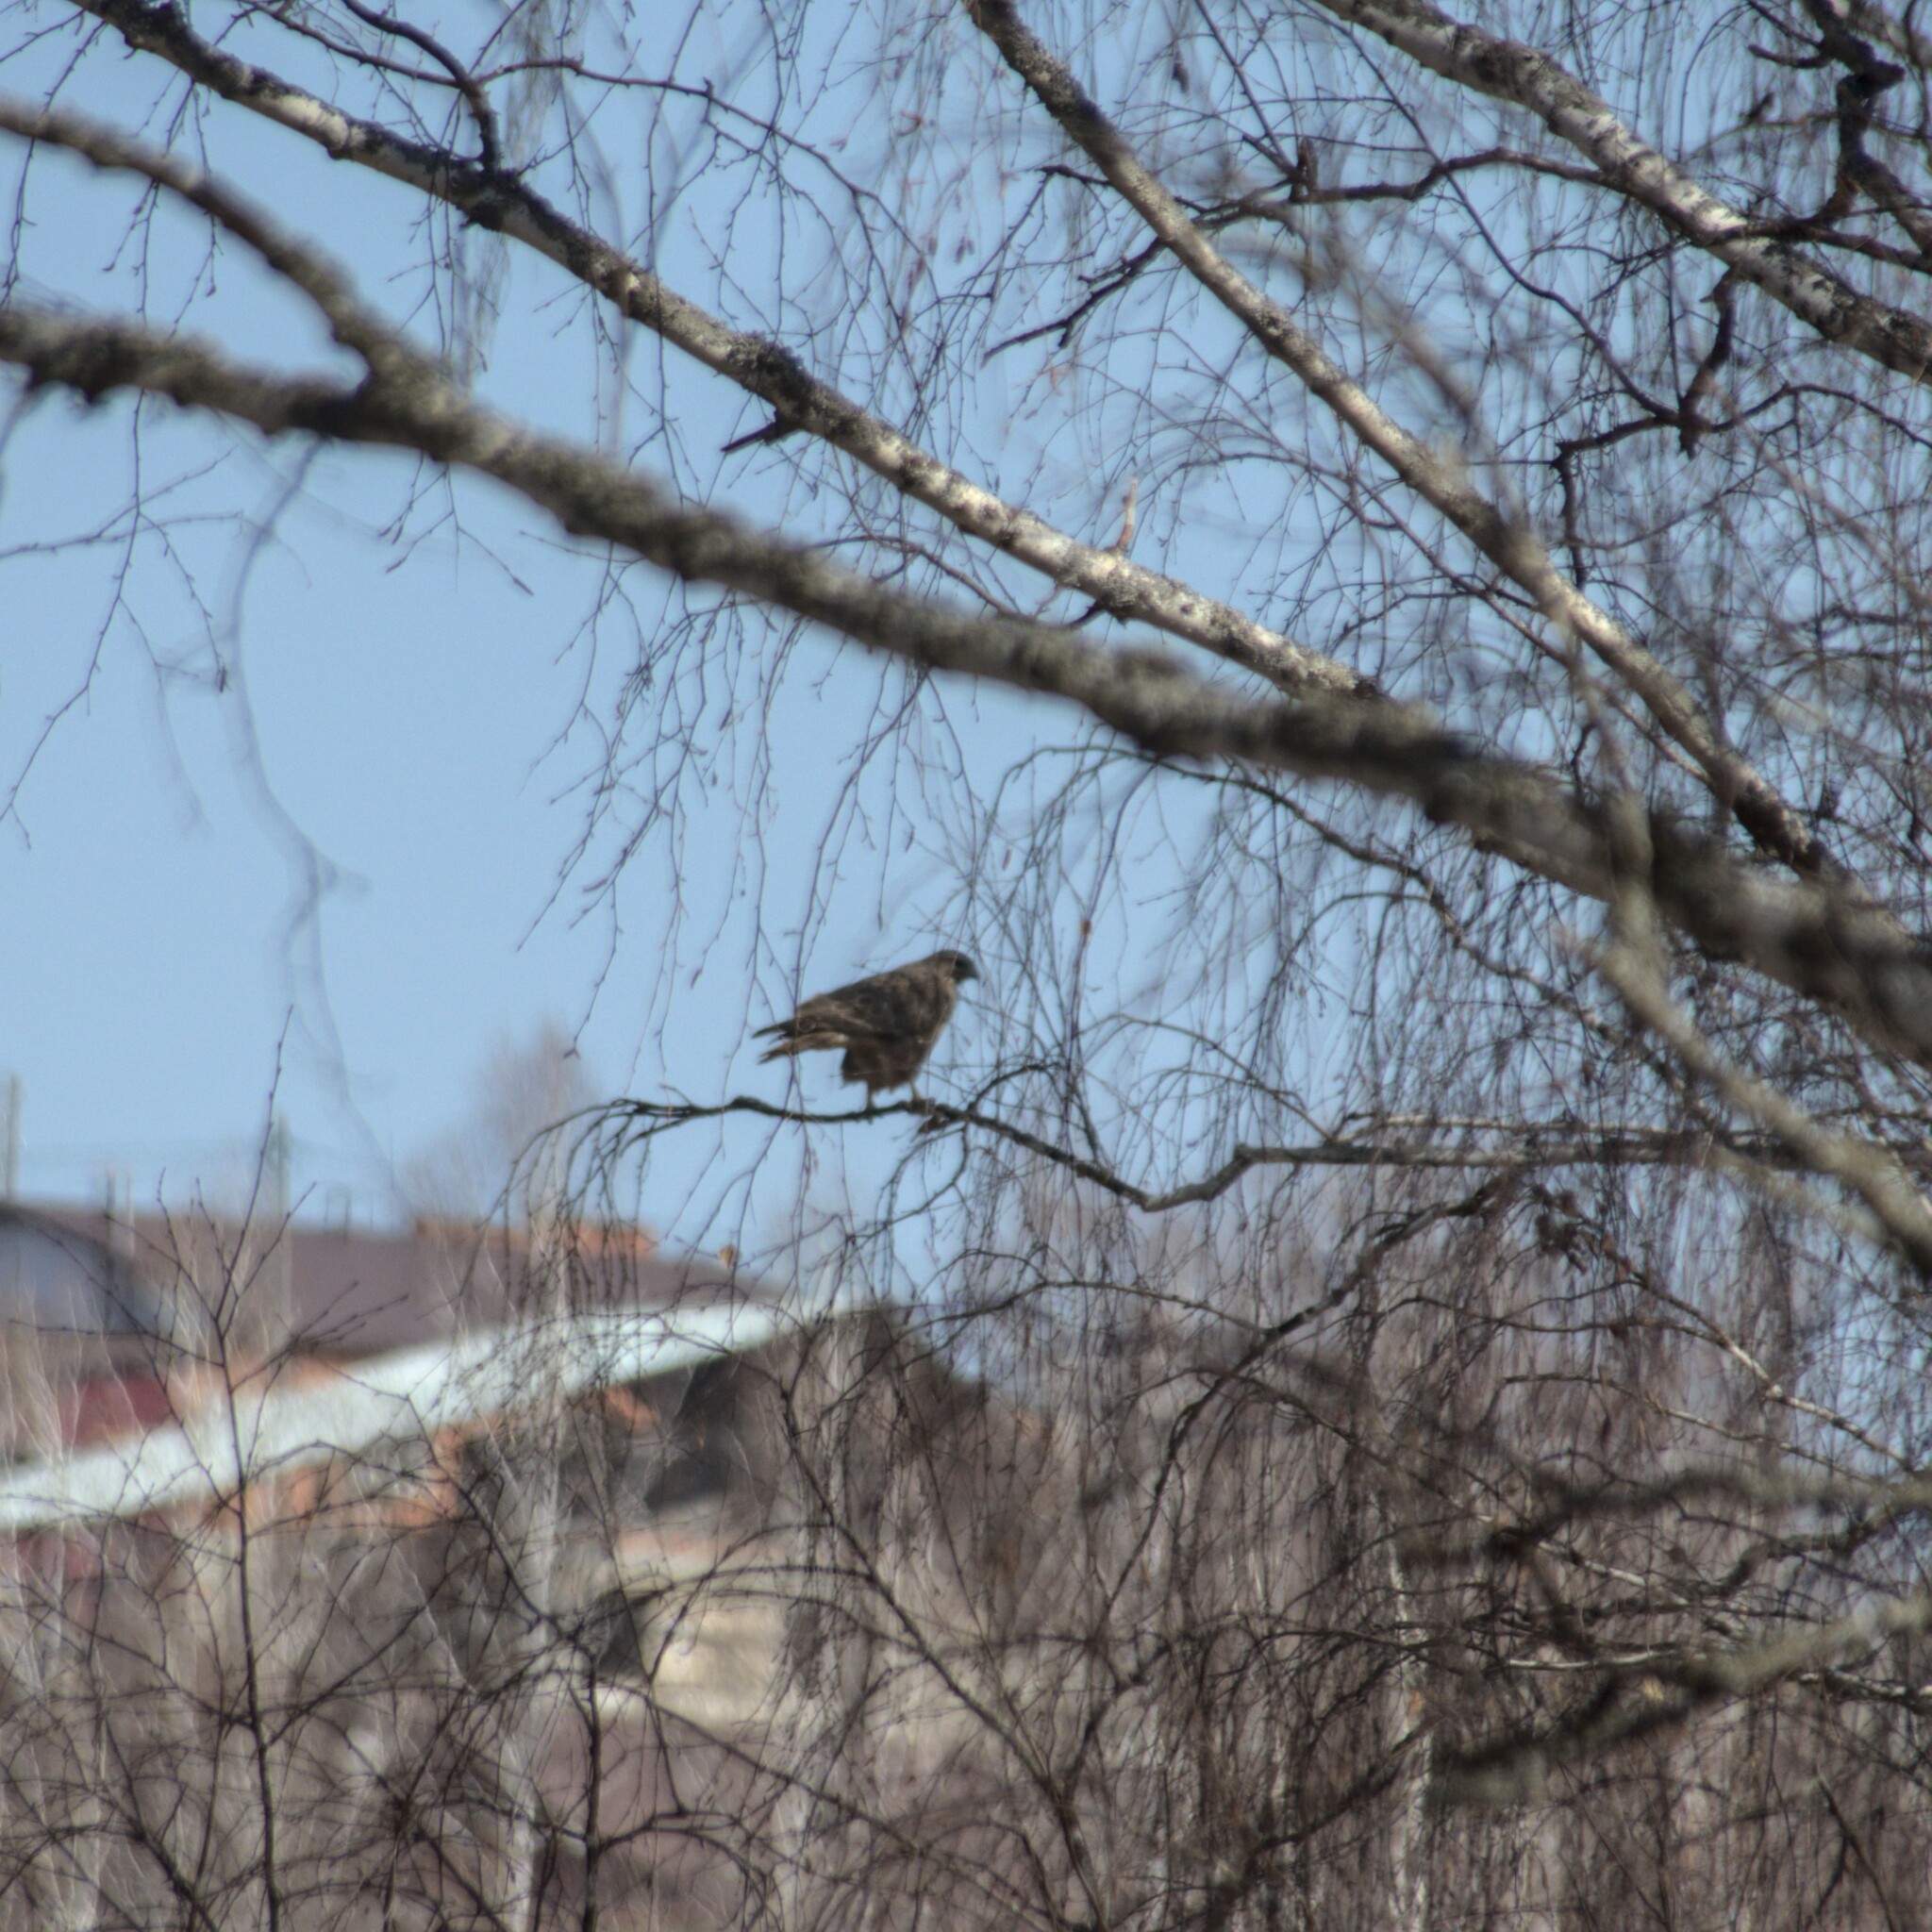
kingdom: Animalia
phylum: Chordata
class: Aves
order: Accipitriformes
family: Accipitridae
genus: Buteo
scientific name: Buteo buteo
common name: Common buzzard
